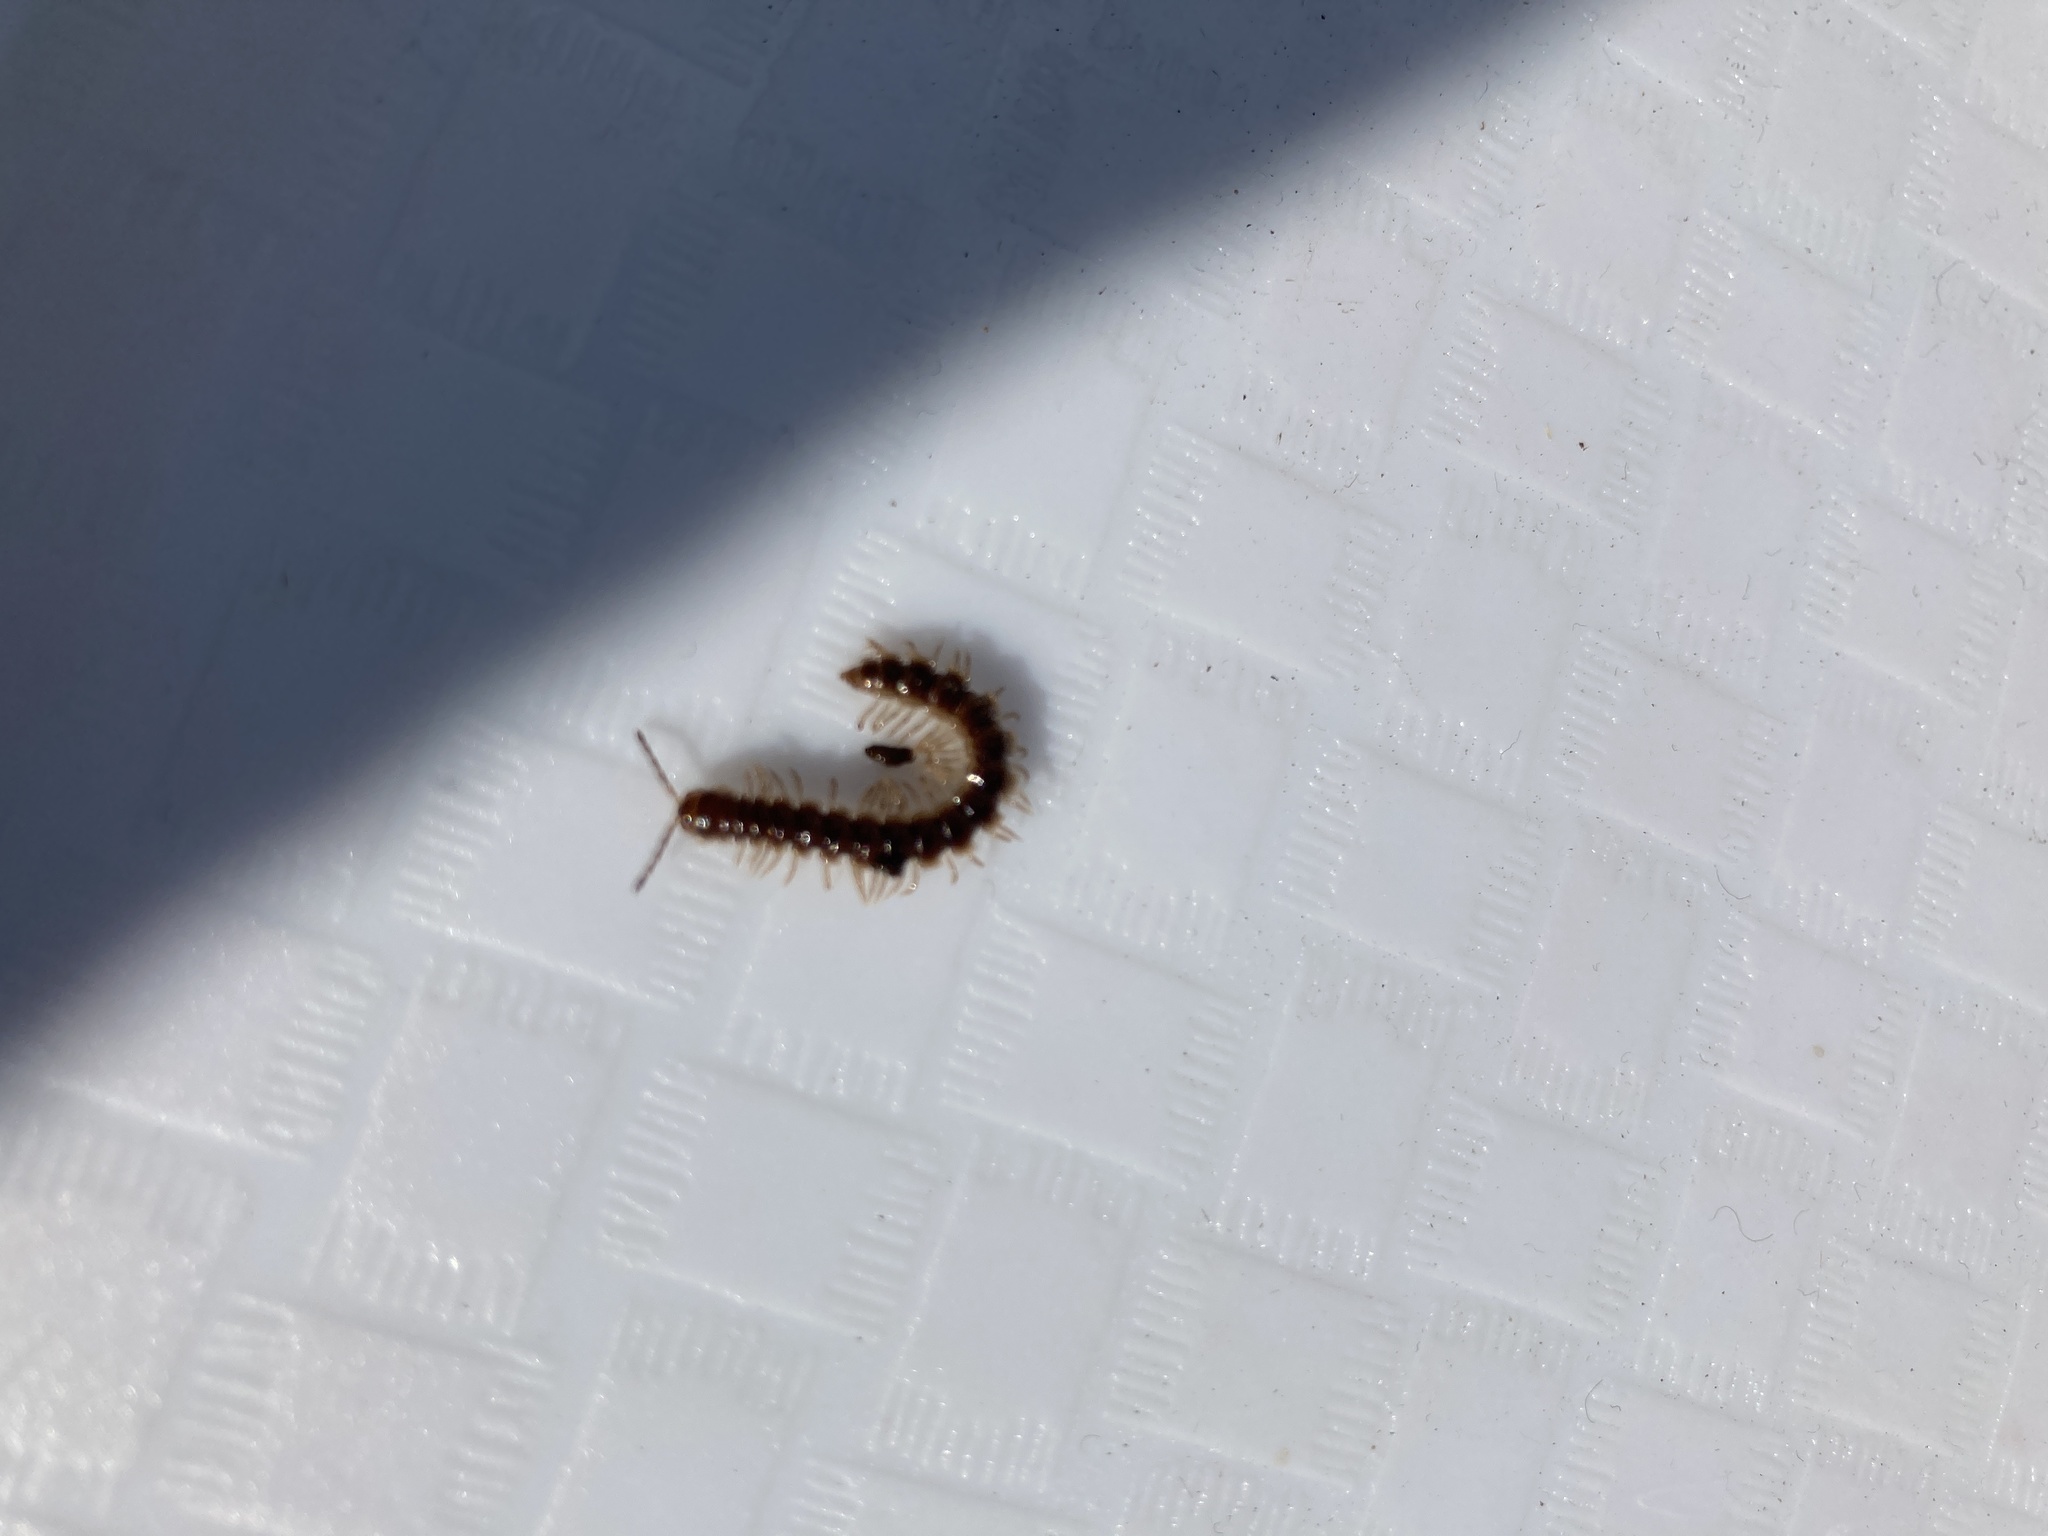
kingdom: Animalia
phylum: Arthropoda
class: Diplopoda
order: Polydesmida
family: Paradoxosomatidae
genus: Oxidus
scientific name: Oxidus gracilis
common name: Greenhouse millipede
